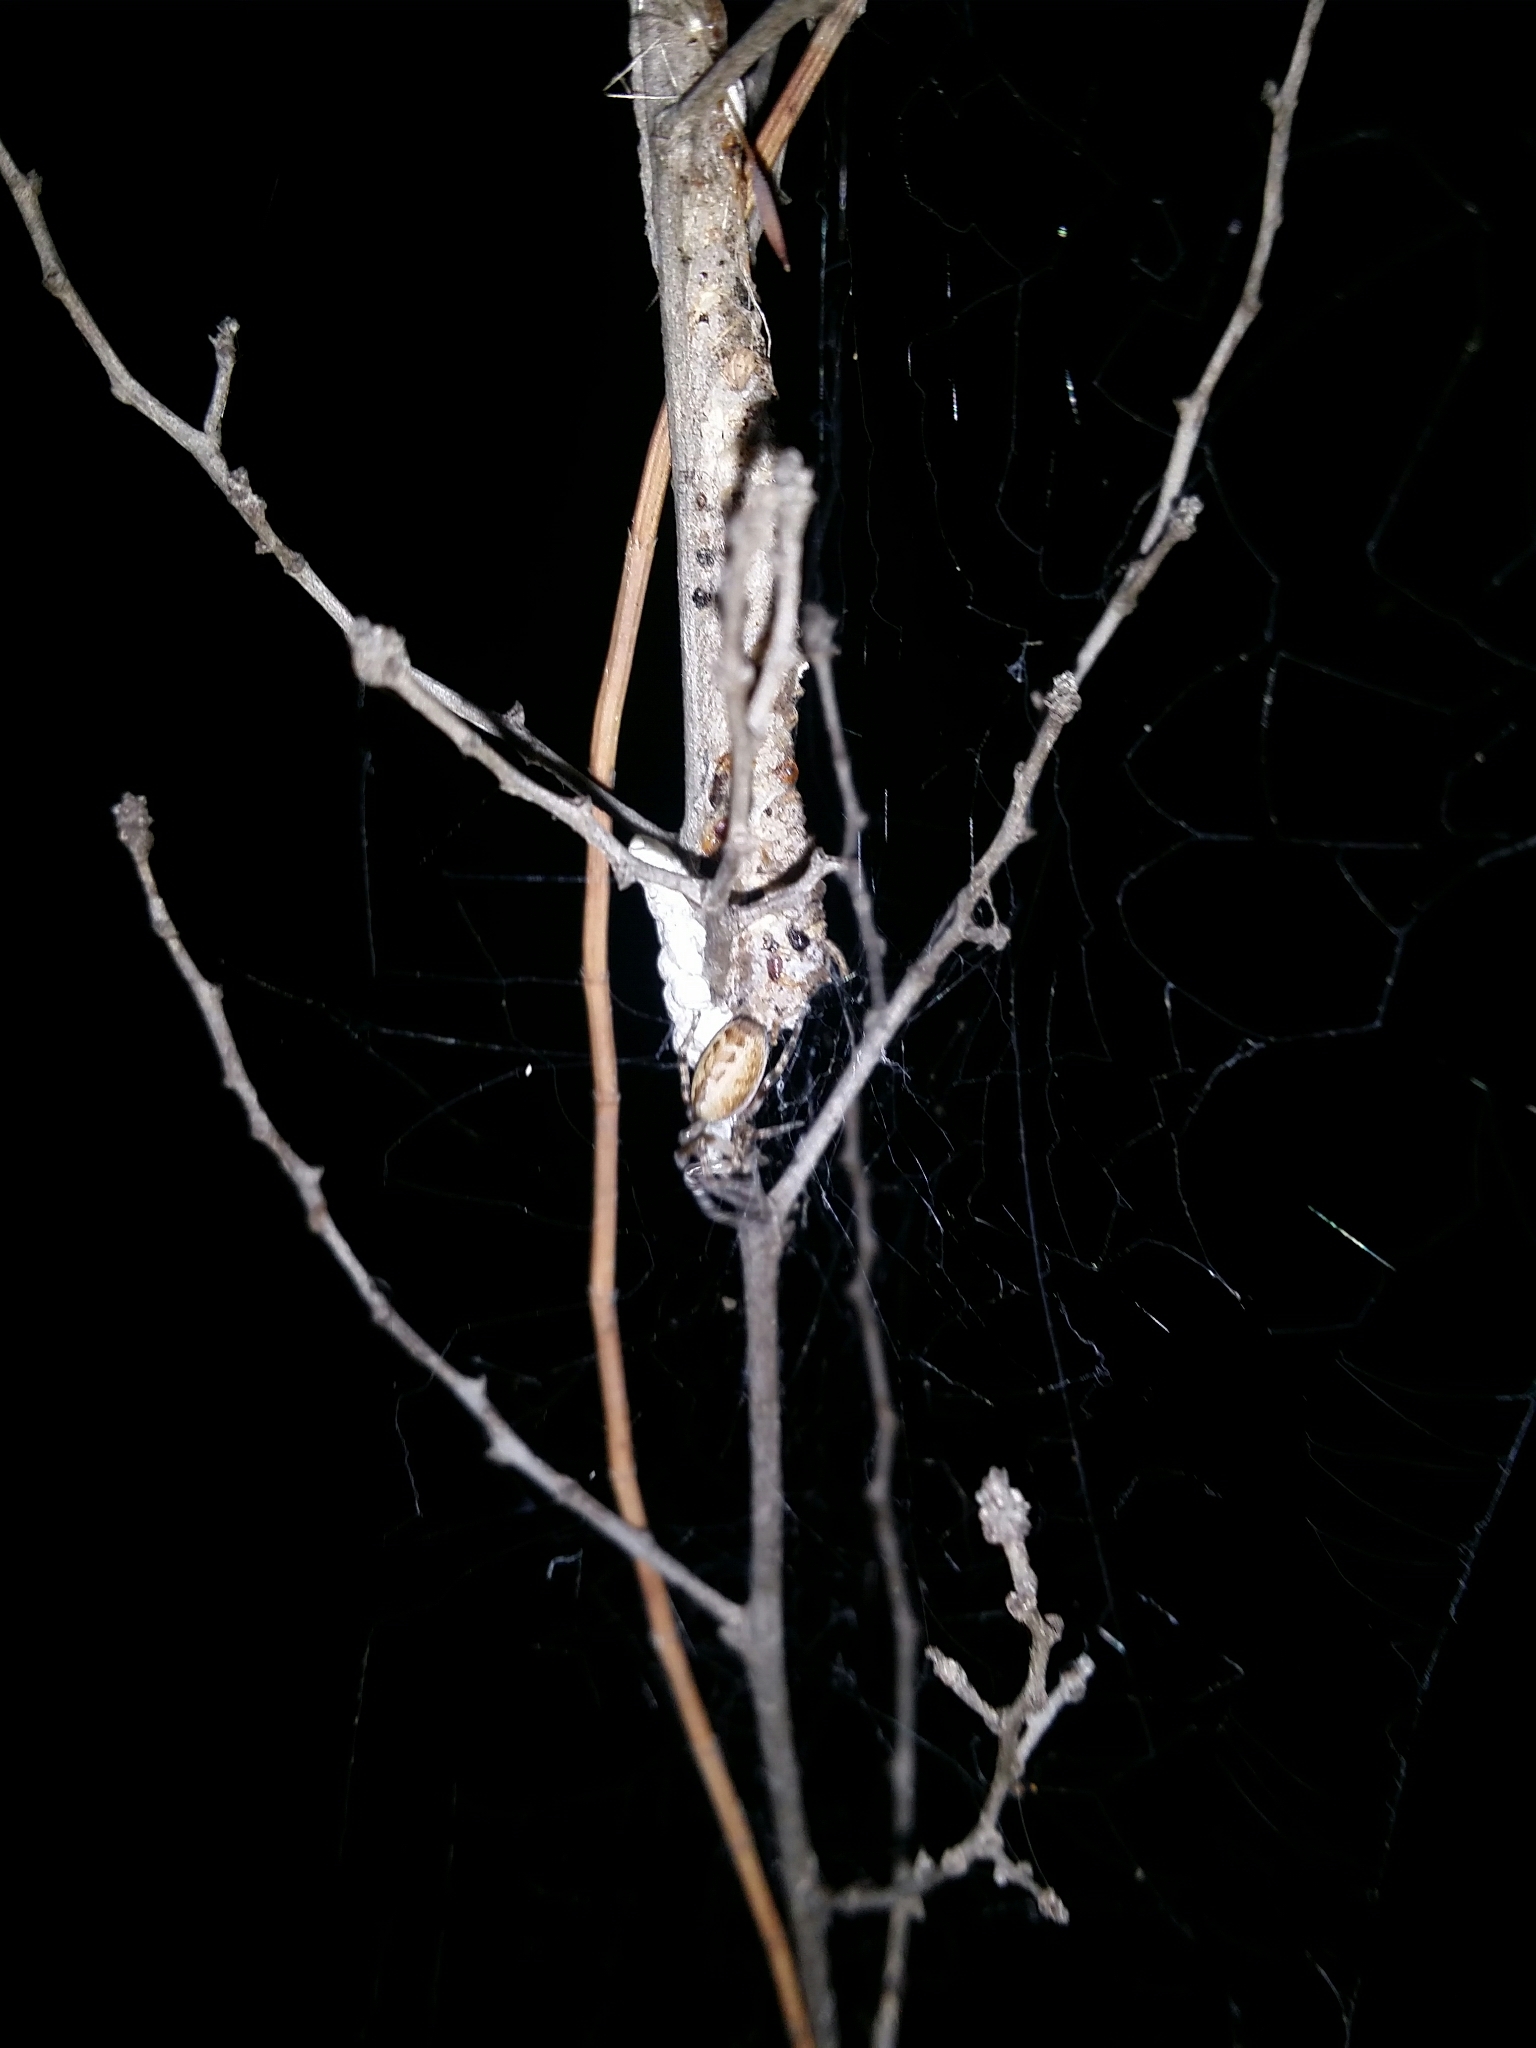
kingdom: Animalia
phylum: Arthropoda
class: Arachnida
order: Araneae
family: Desidae
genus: Phryganoporus
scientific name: Phryganoporus nigrinus
